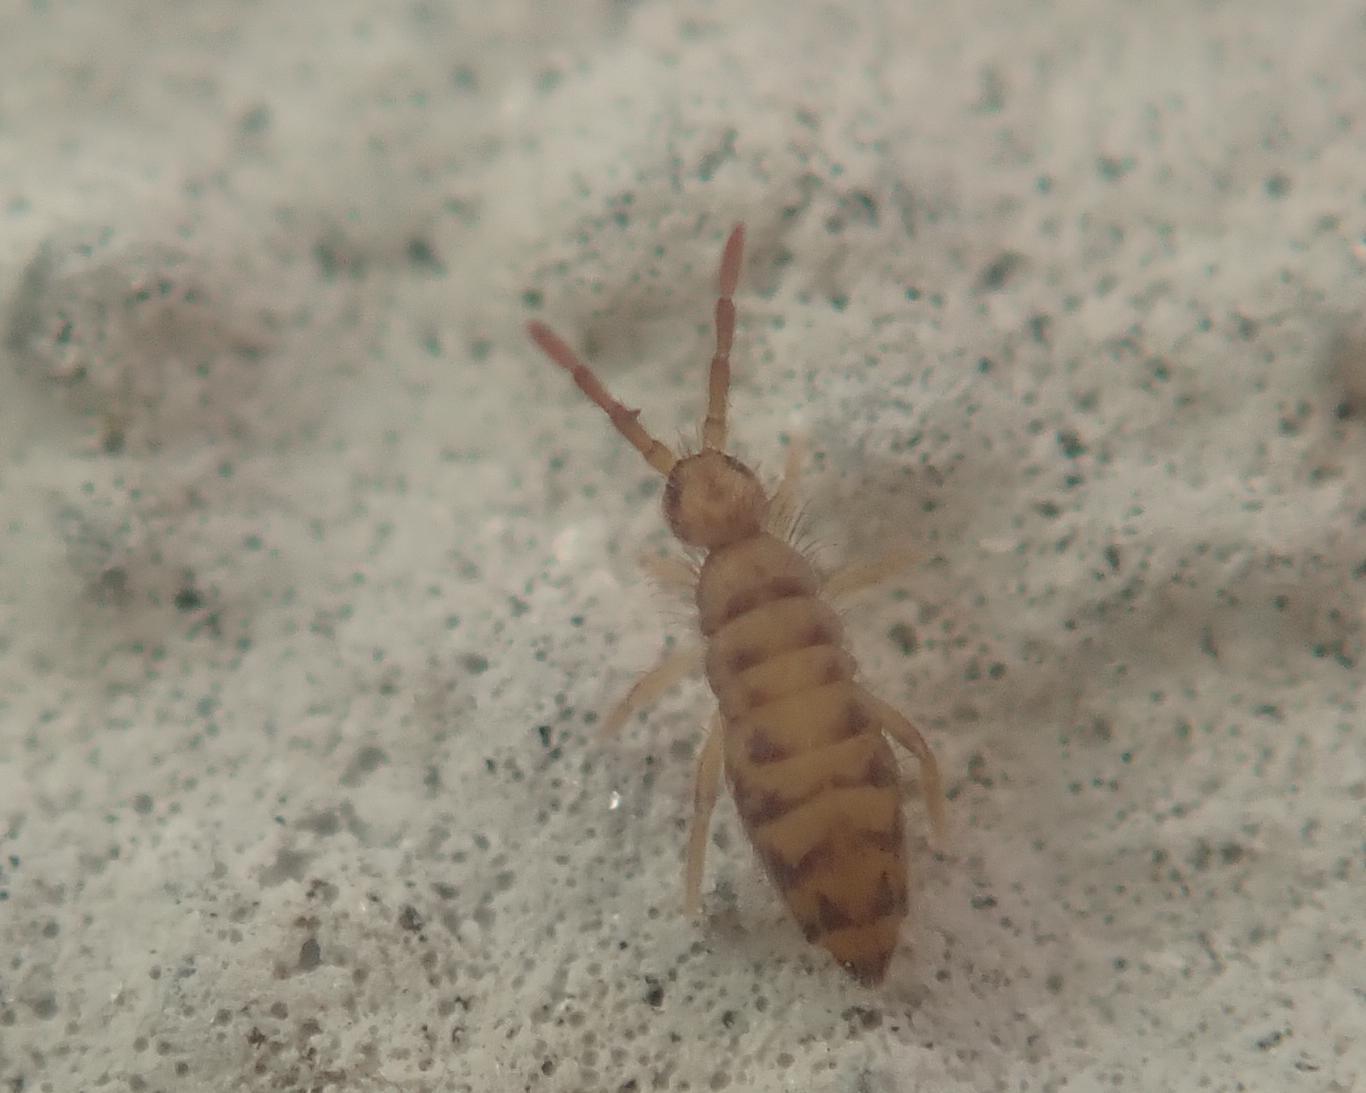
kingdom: Animalia
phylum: Arthropoda
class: Collembola
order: Entomobryomorpha
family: Entomobryidae
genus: Entomobrya
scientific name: Entomobrya multifasciata
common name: Springtail
